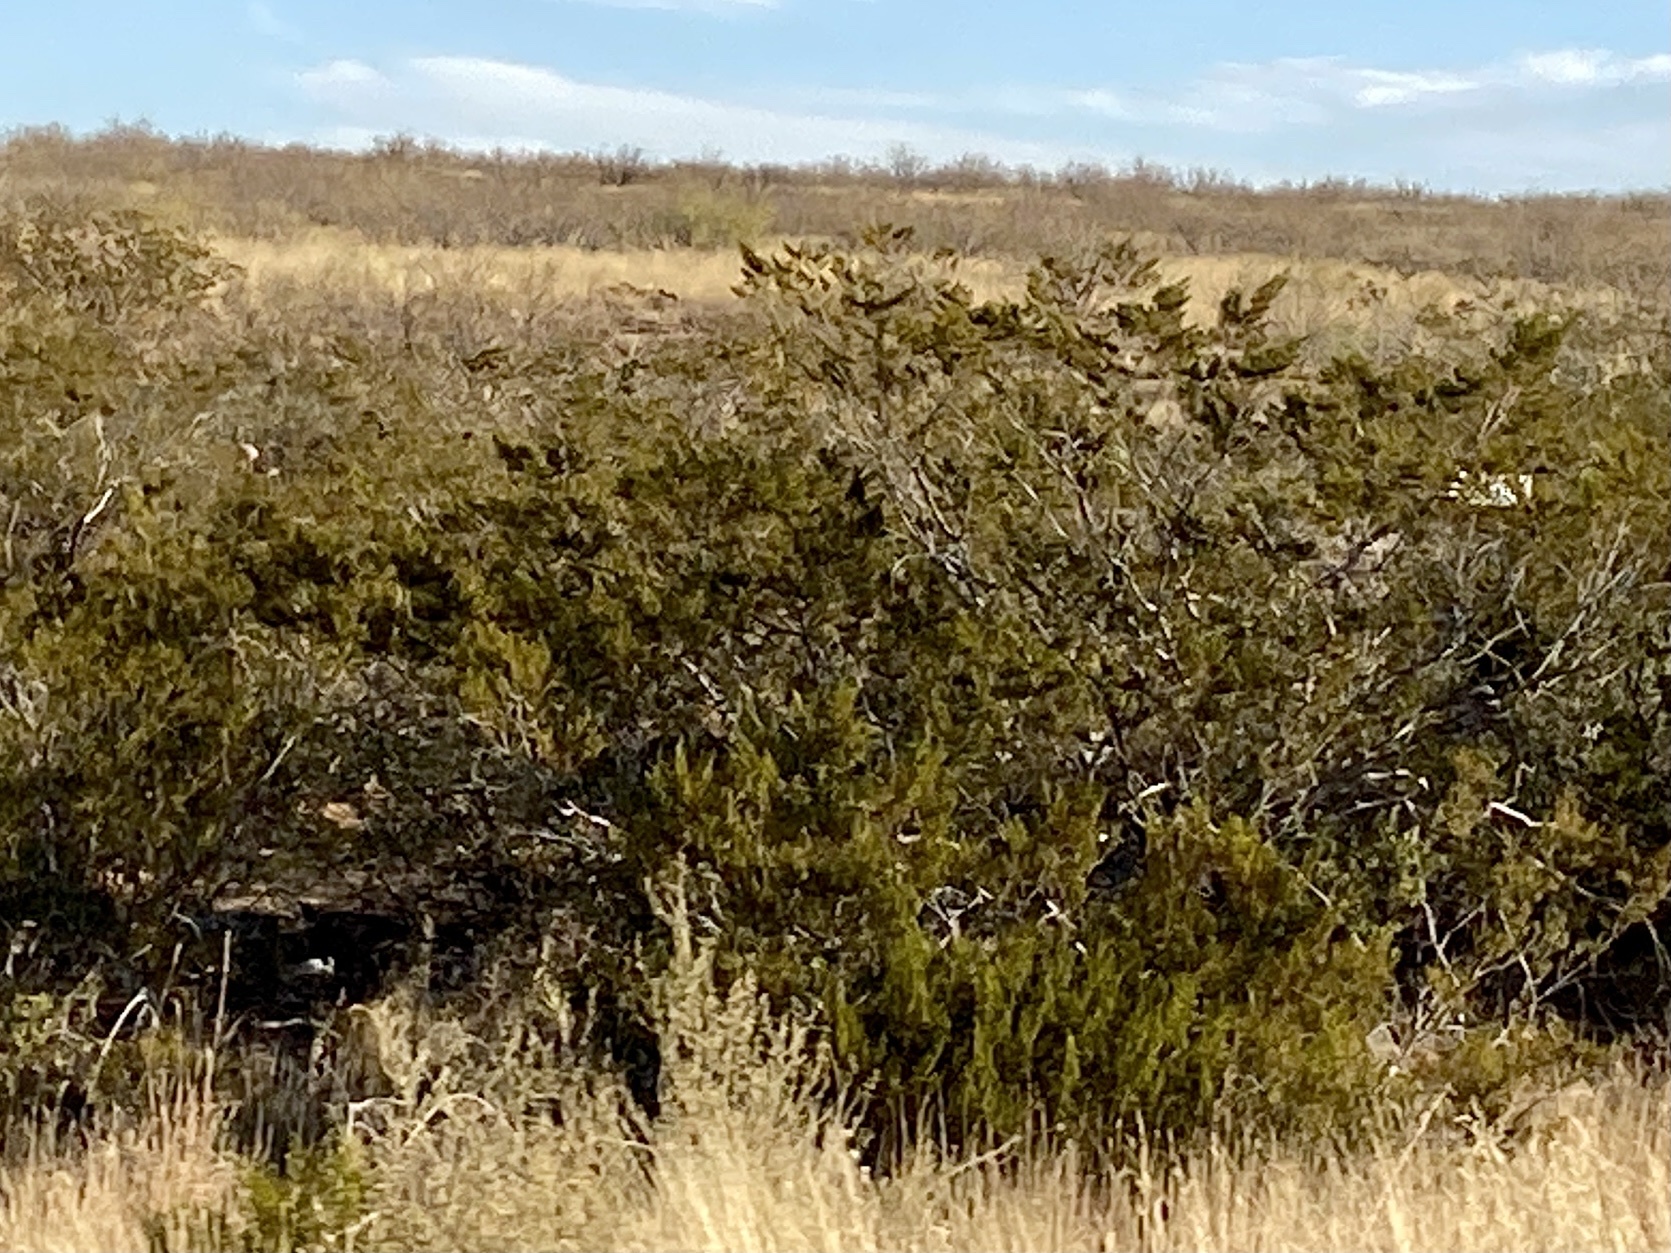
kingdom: Plantae
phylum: Tracheophyta
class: Magnoliopsida
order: Zygophyllales
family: Zygophyllaceae
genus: Larrea
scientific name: Larrea tridentata
